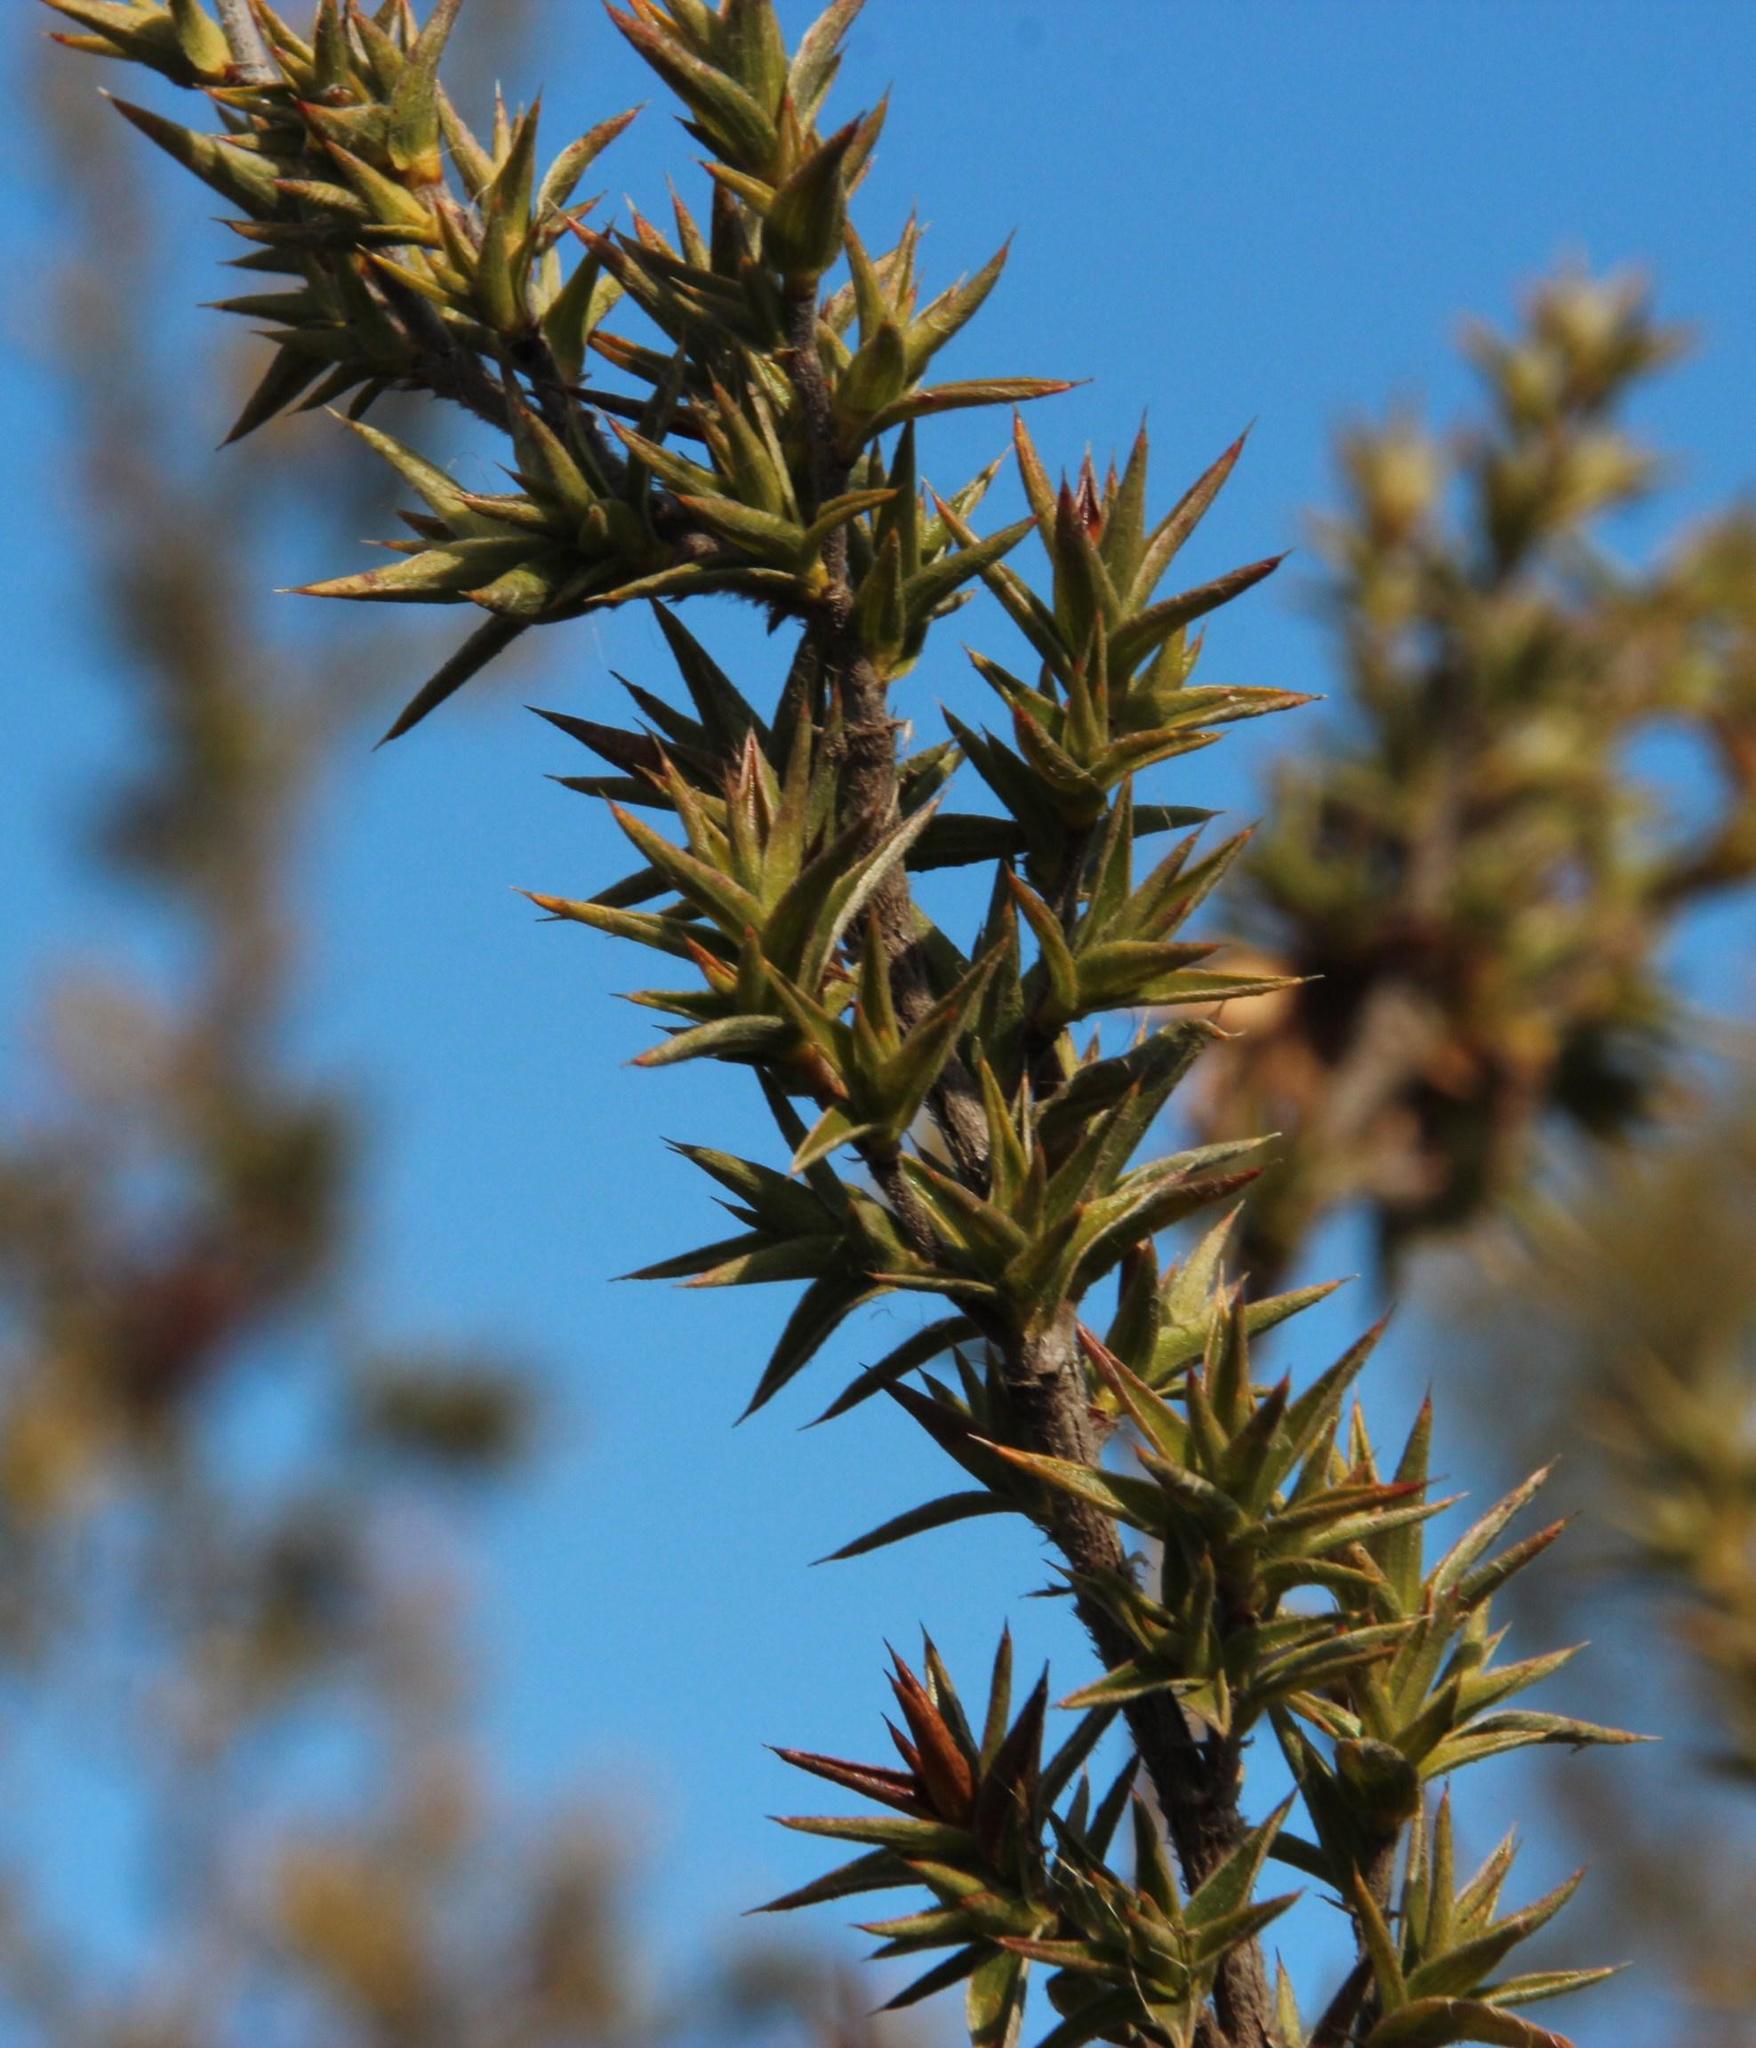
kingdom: Plantae
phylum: Tracheophyta
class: Magnoliopsida
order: Rosales
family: Rosaceae
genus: Cliffortia
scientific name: Cliffortia ruscifolia
